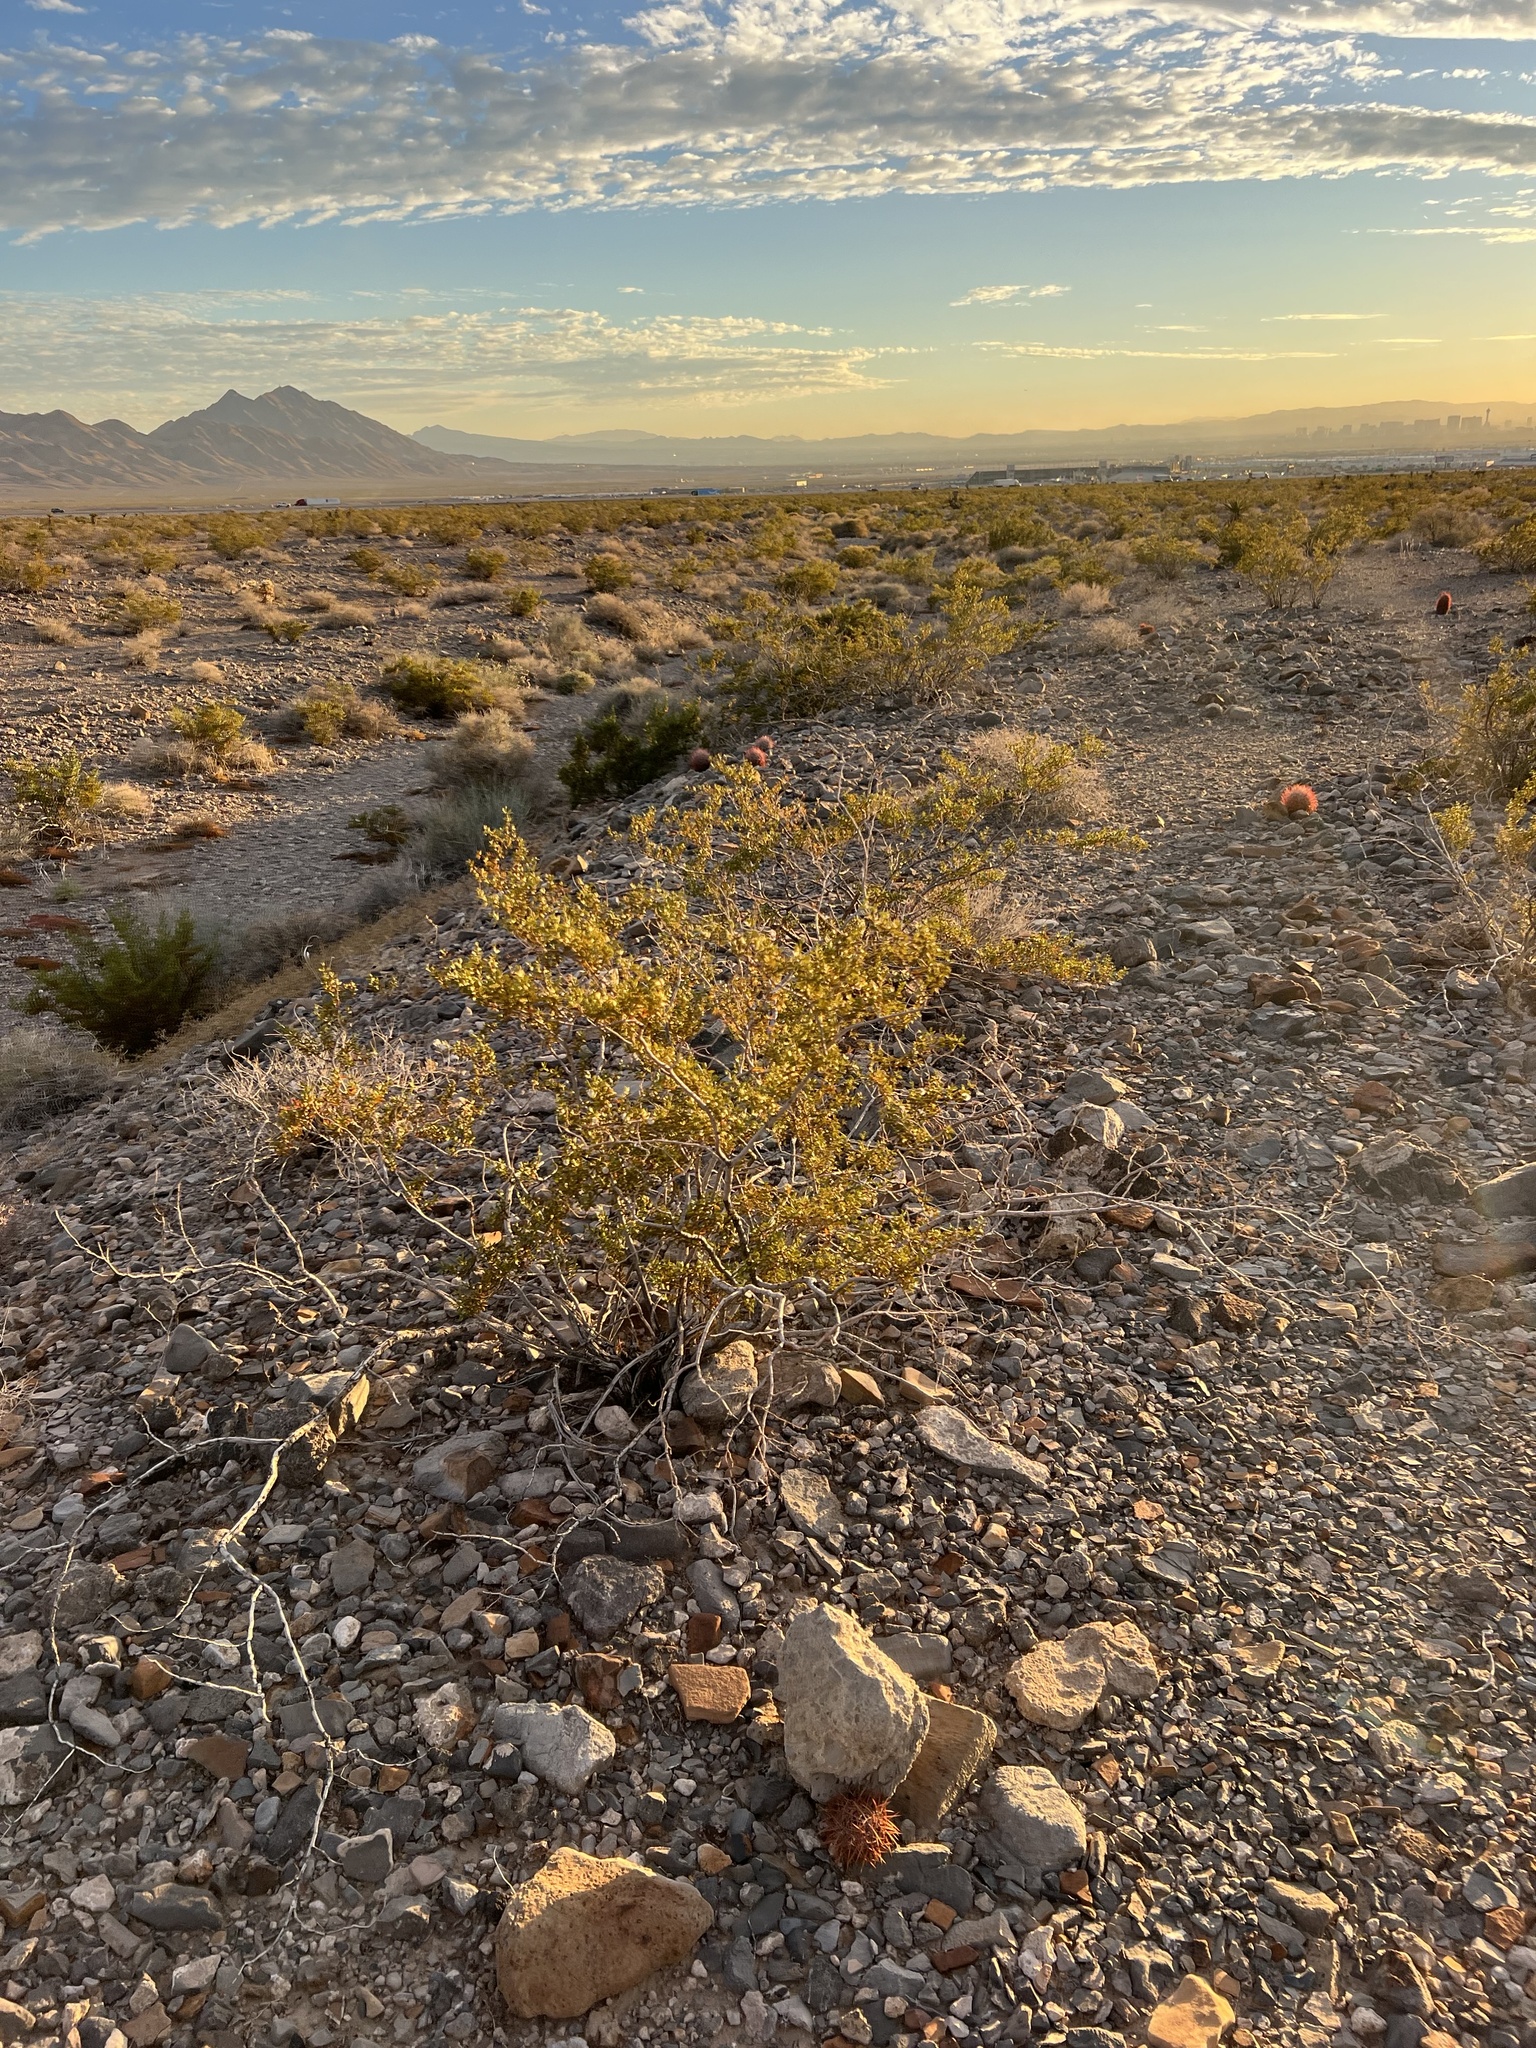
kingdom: Plantae
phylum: Tracheophyta
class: Magnoliopsida
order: Zygophyllales
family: Zygophyllaceae
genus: Larrea
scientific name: Larrea tridentata
